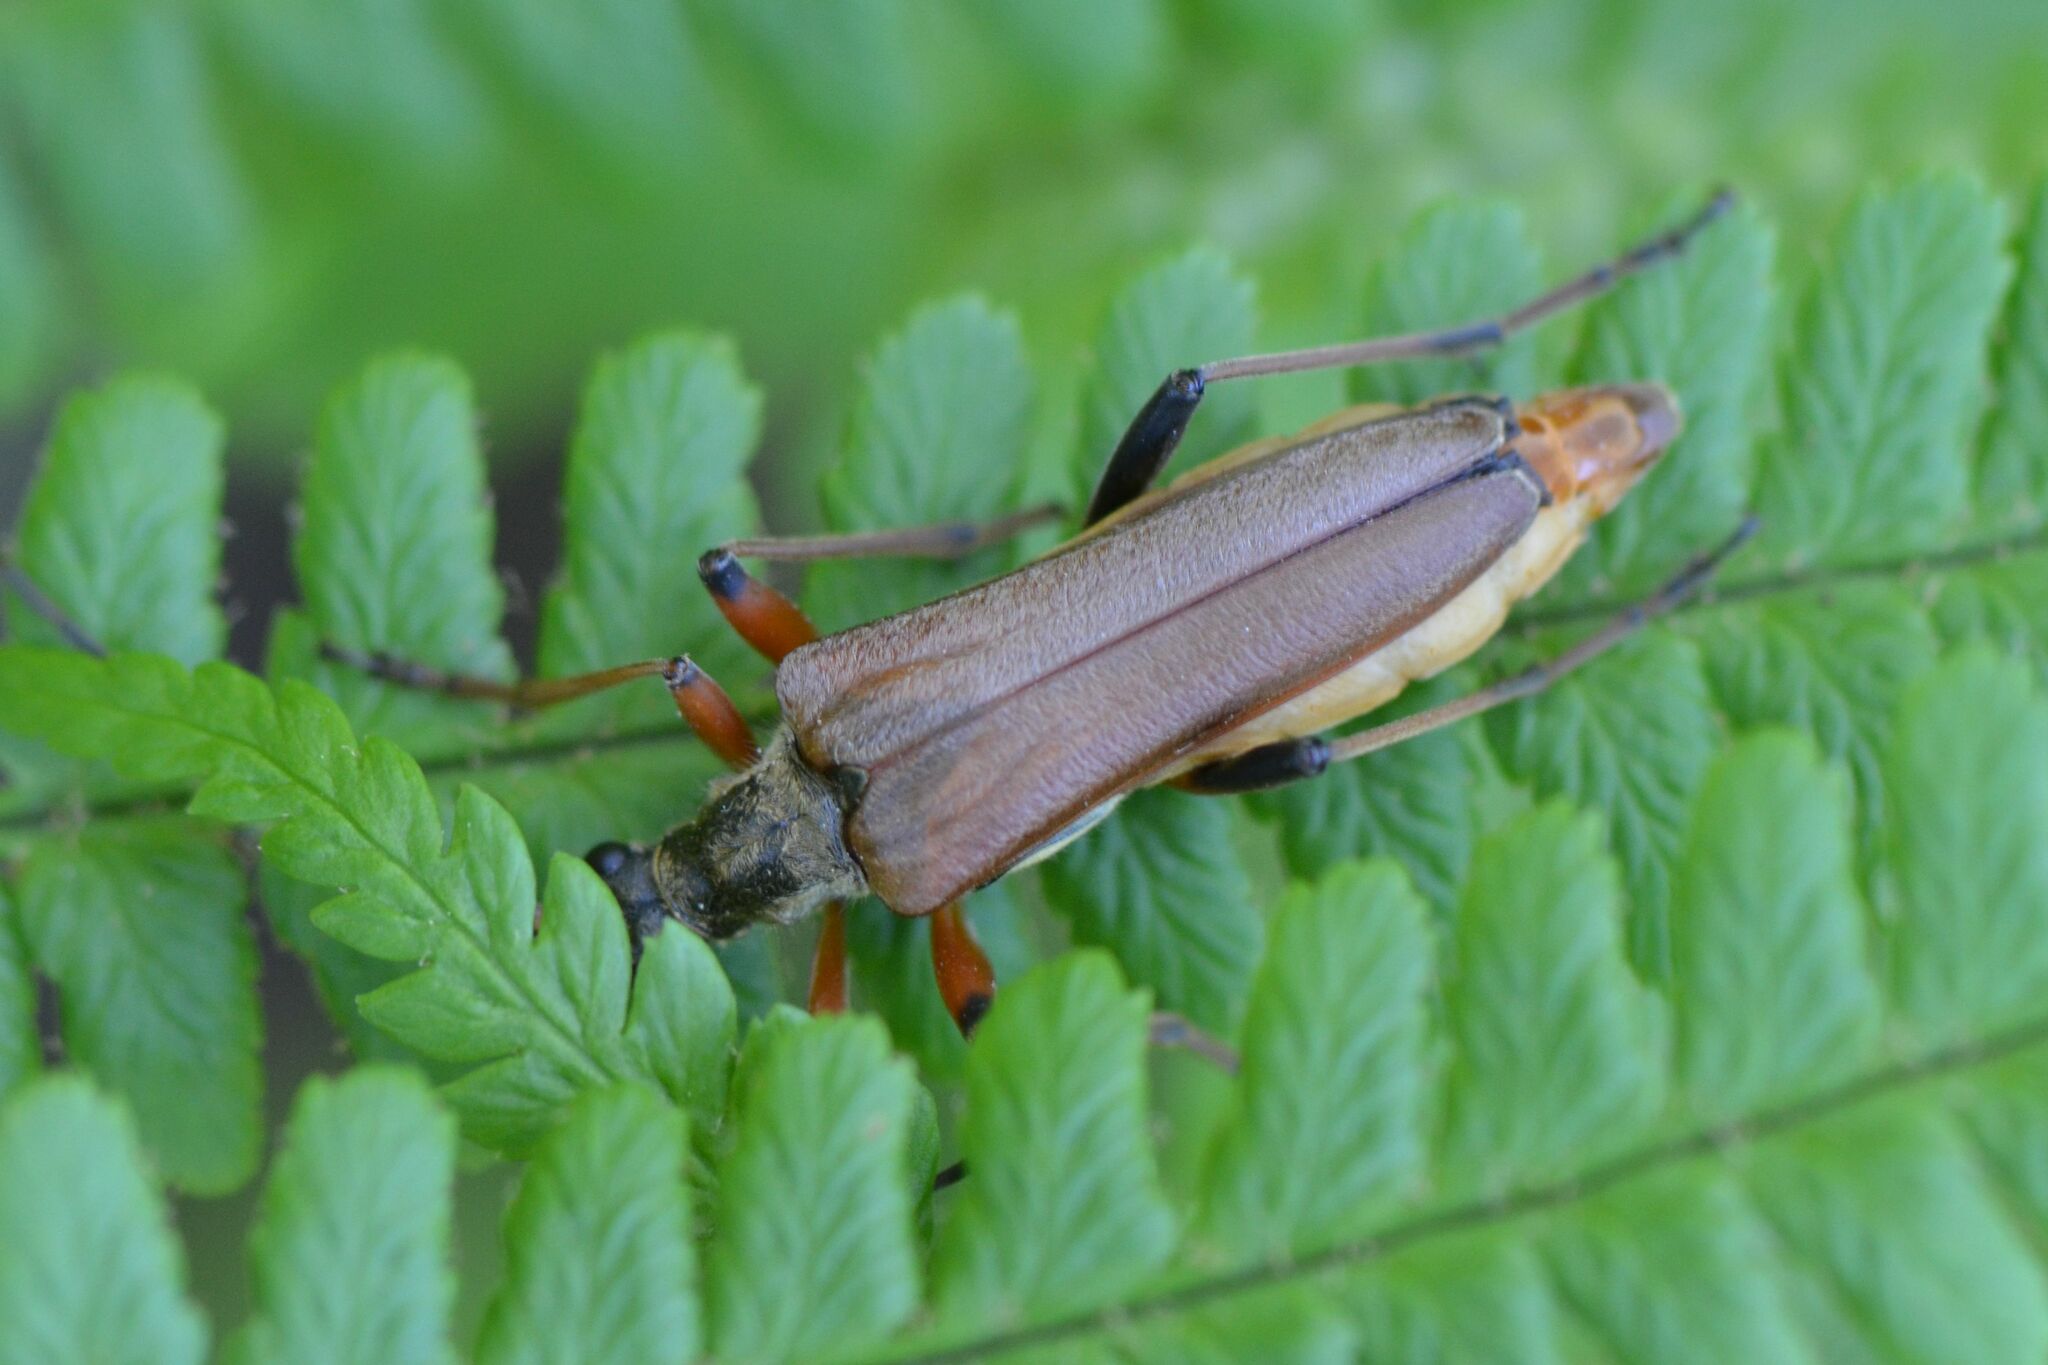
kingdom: Animalia
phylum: Arthropoda
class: Insecta
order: Coleoptera
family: Cerambycidae
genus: Stenocorus
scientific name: Stenocorus meridianus
